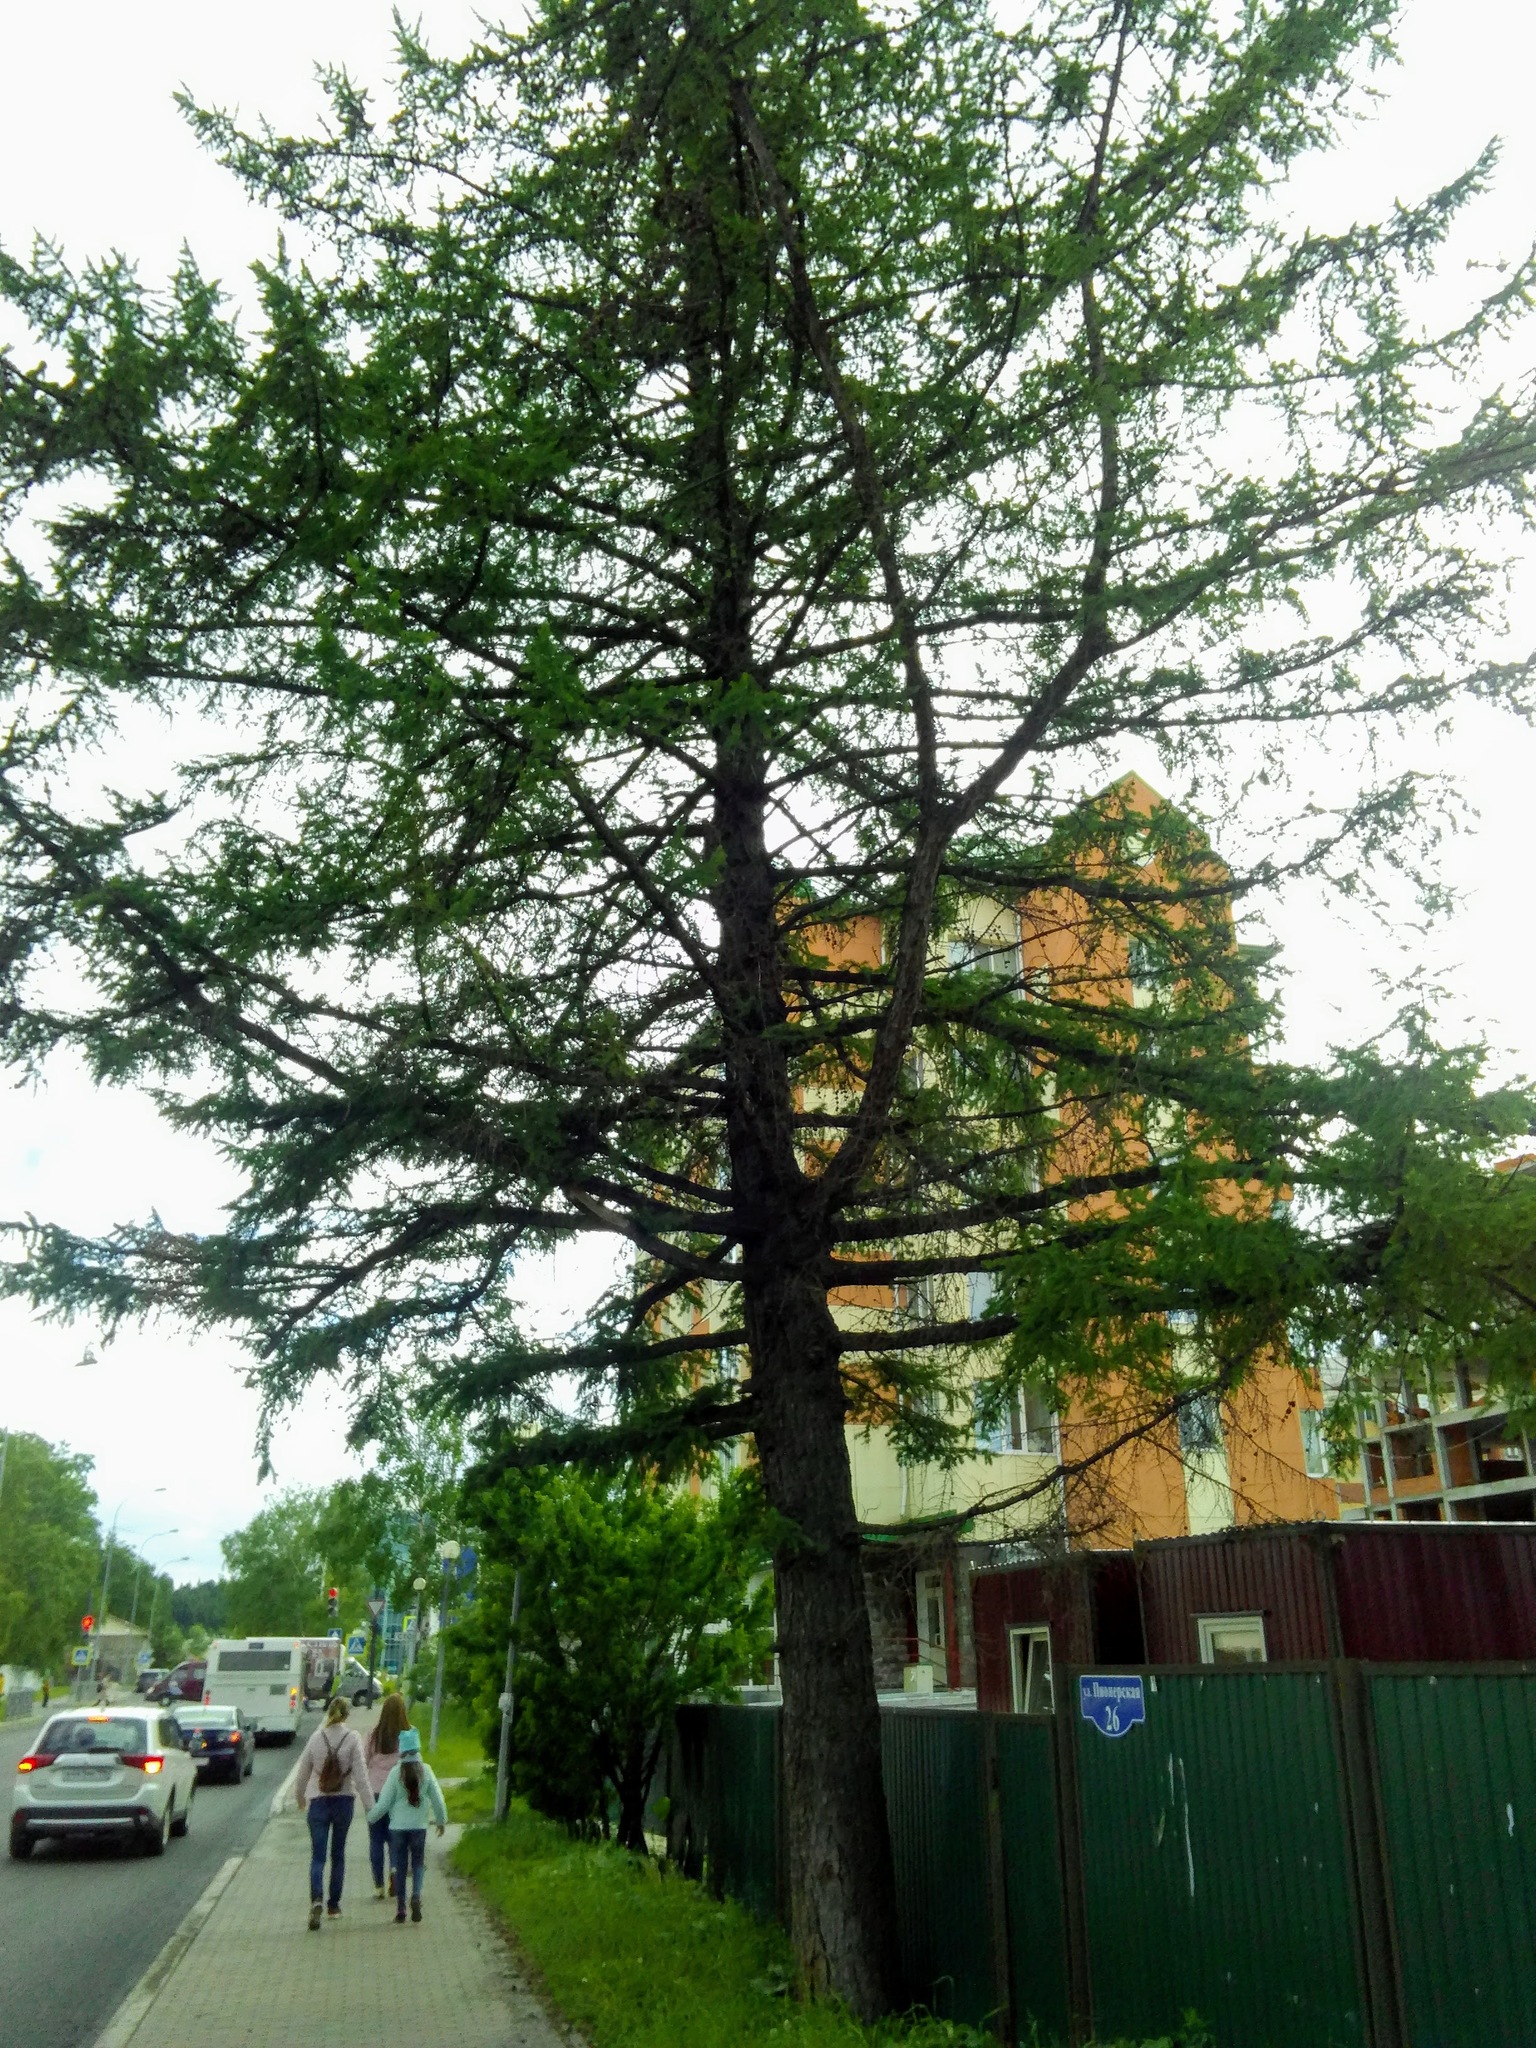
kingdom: Plantae
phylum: Tracheophyta
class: Pinopsida
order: Pinales
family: Pinaceae
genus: Larix
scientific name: Larix sibirica
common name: Siberian larch
